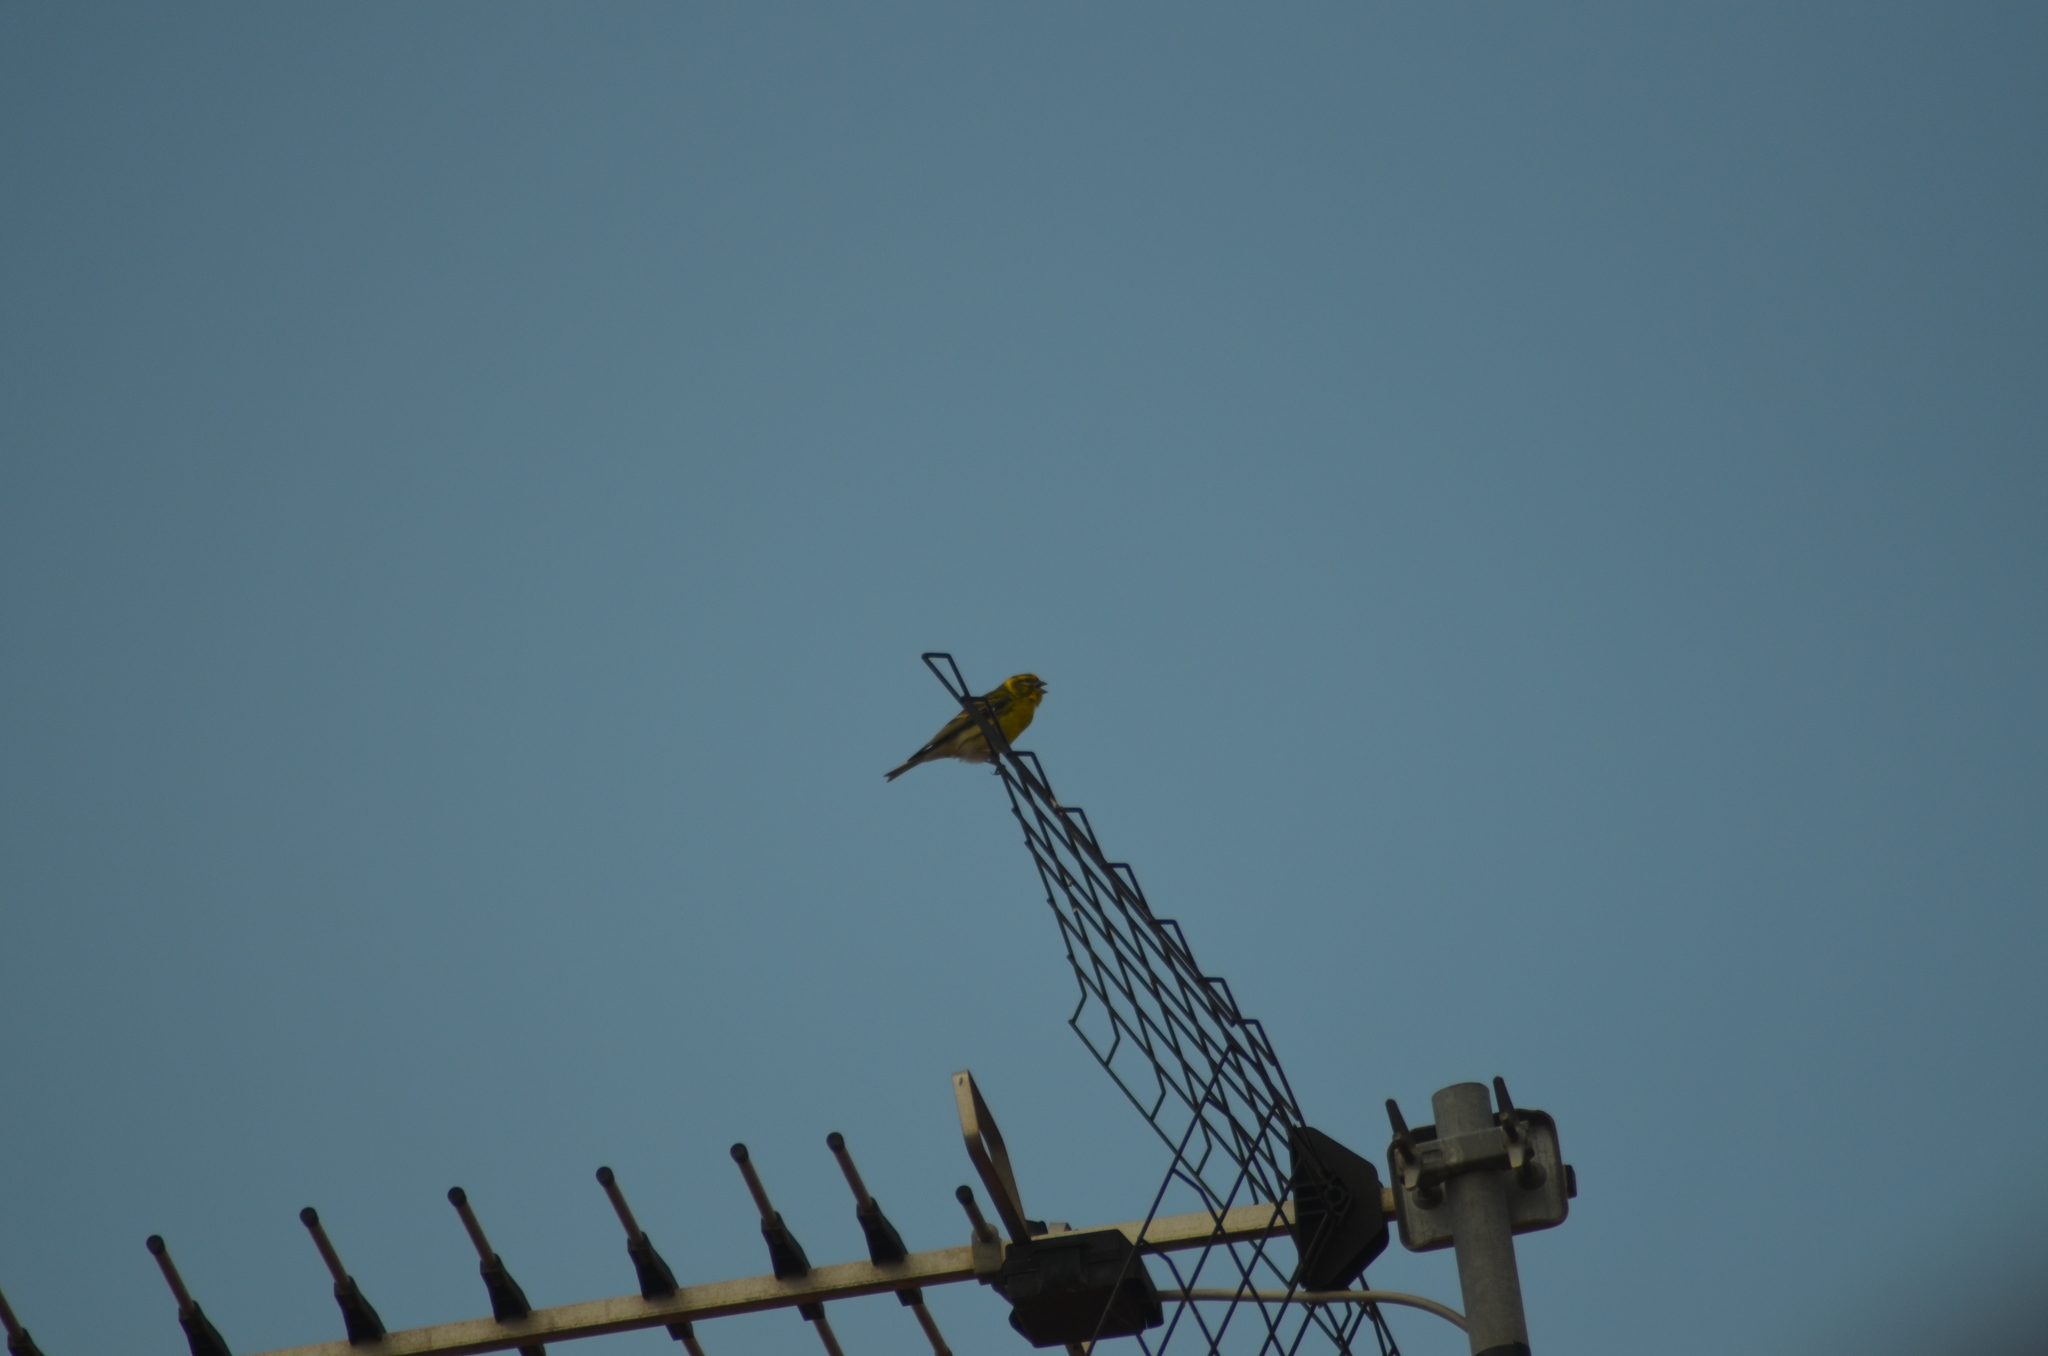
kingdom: Animalia
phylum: Chordata
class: Aves
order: Passeriformes
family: Fringillidae
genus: Serinus
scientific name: Serinus serinus
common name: European serin
